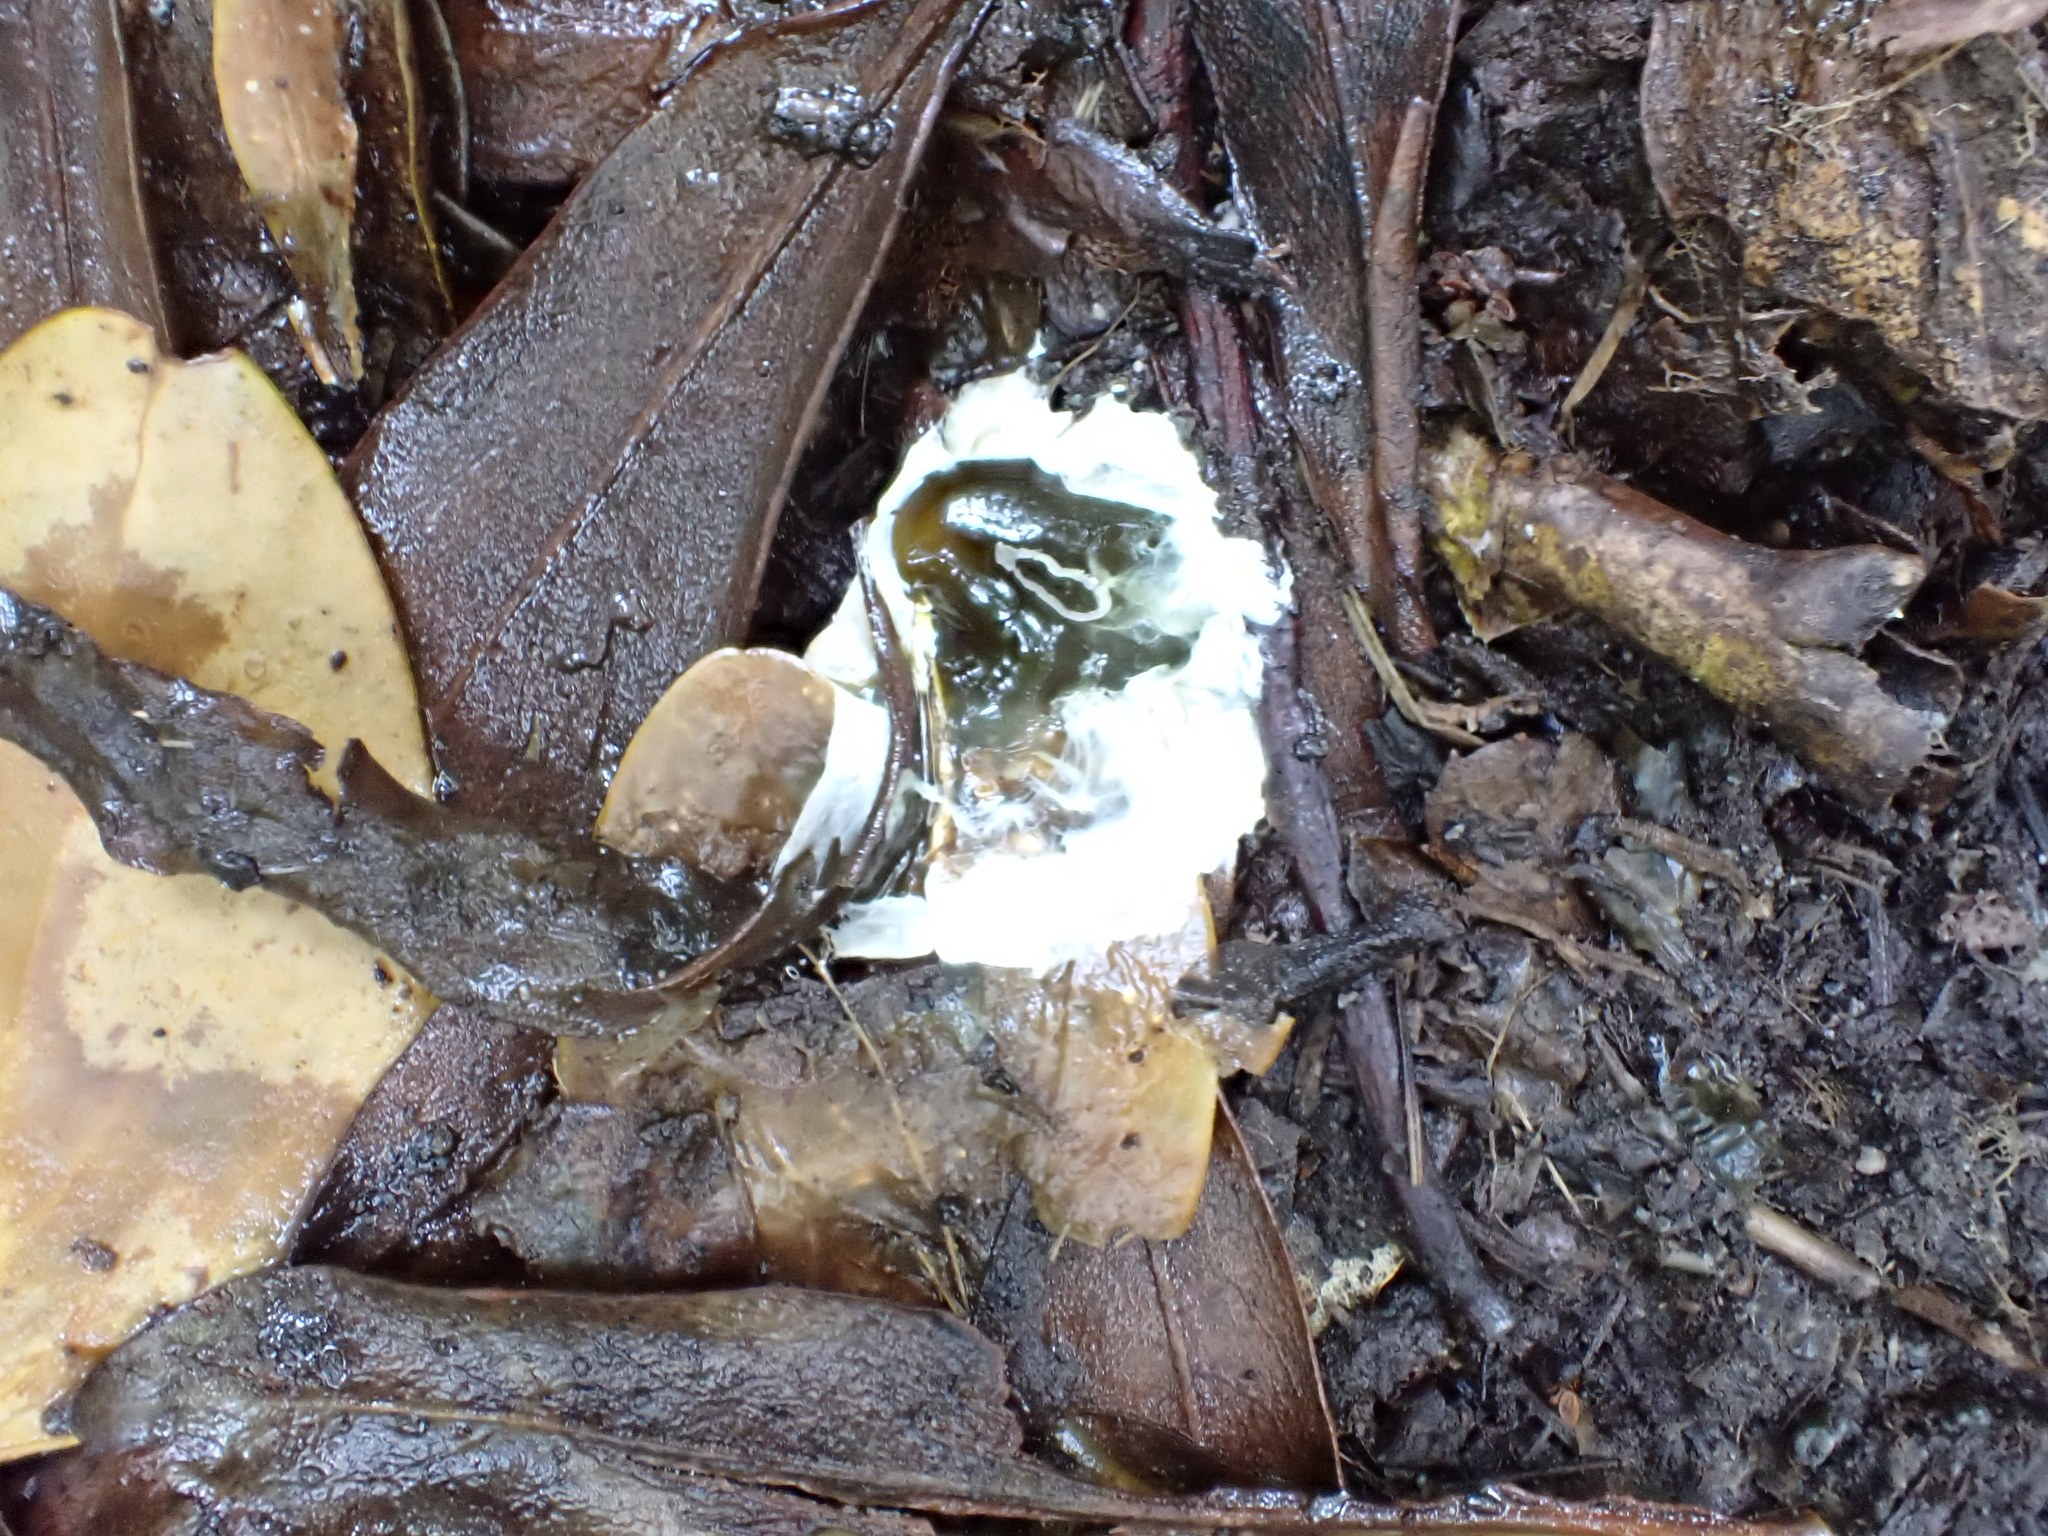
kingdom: Animalia
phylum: Chordata
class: Aves
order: Apterygiformes
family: Apterygidae
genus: Apteryx
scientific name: Apteryx mantelli
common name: North island brown kiwi
